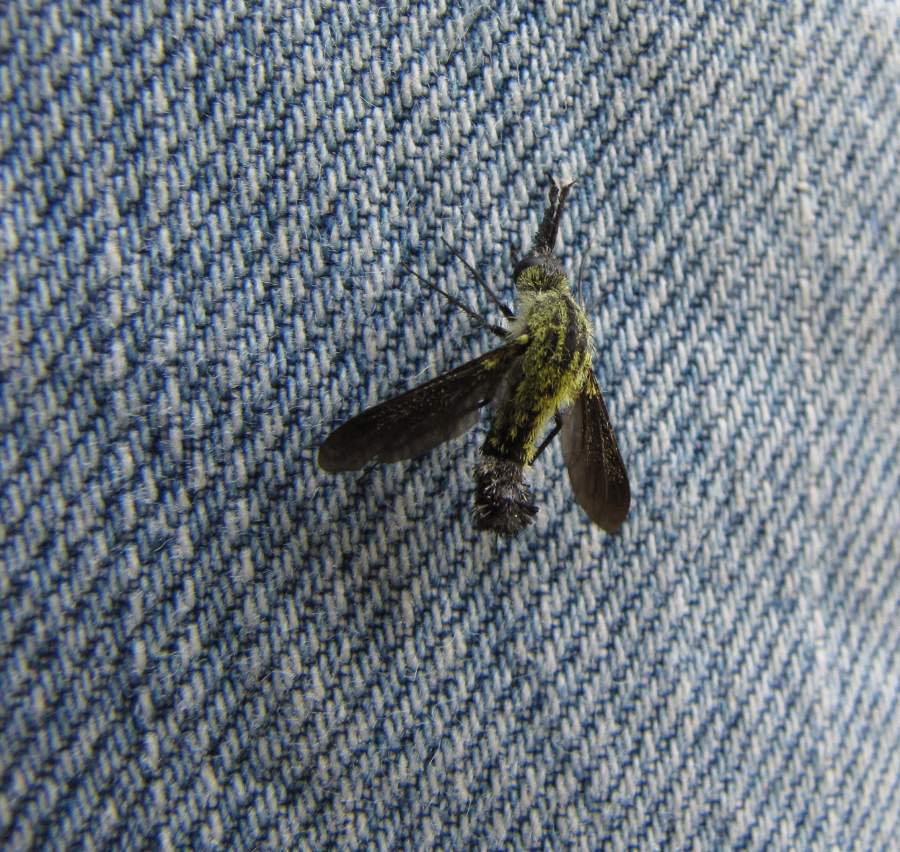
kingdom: Animalia
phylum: Arthropoda
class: Insecta
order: Diptera
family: Bombyliidae
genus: Lepidophora
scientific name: Lepidophora lutea
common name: Hunchback bee fly
